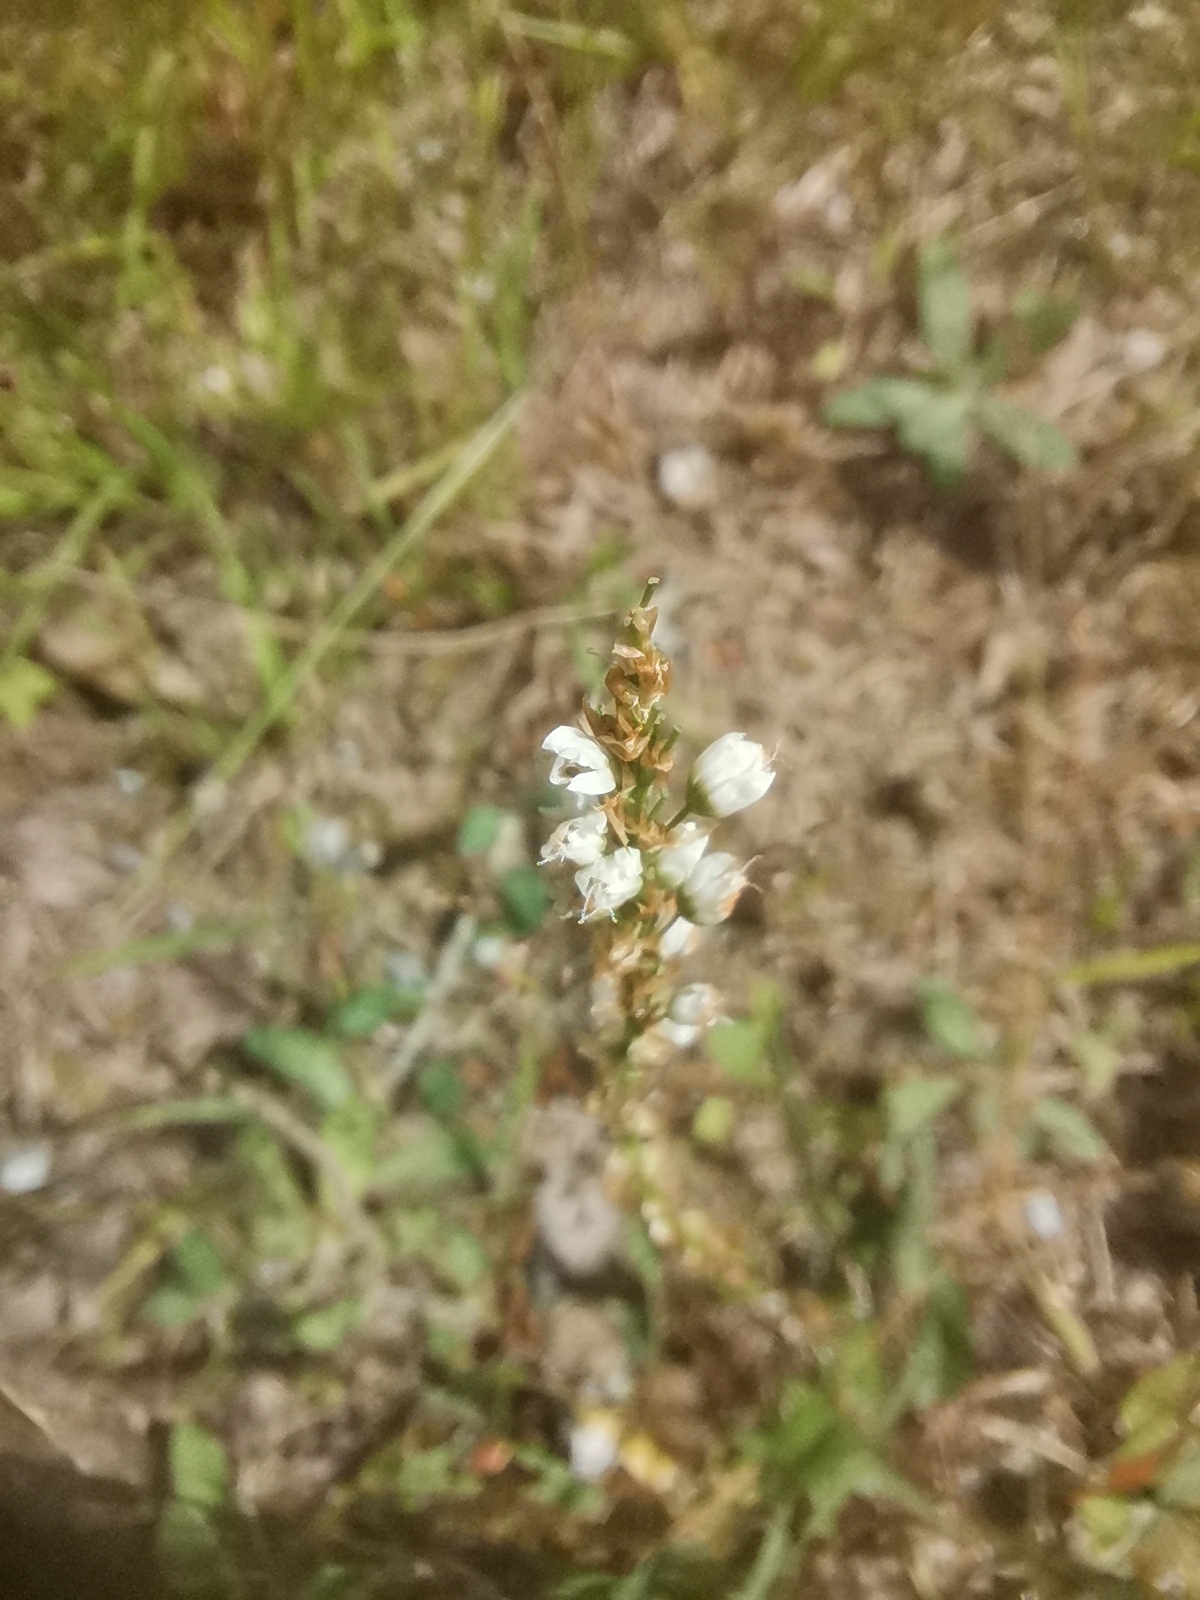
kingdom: Plantae
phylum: Tracheophyta
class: Magnoliopsida
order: Caryophyllales
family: Polygonaceae
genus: Bistorta
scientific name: Bistorta vivipara
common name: Alpine bistort
